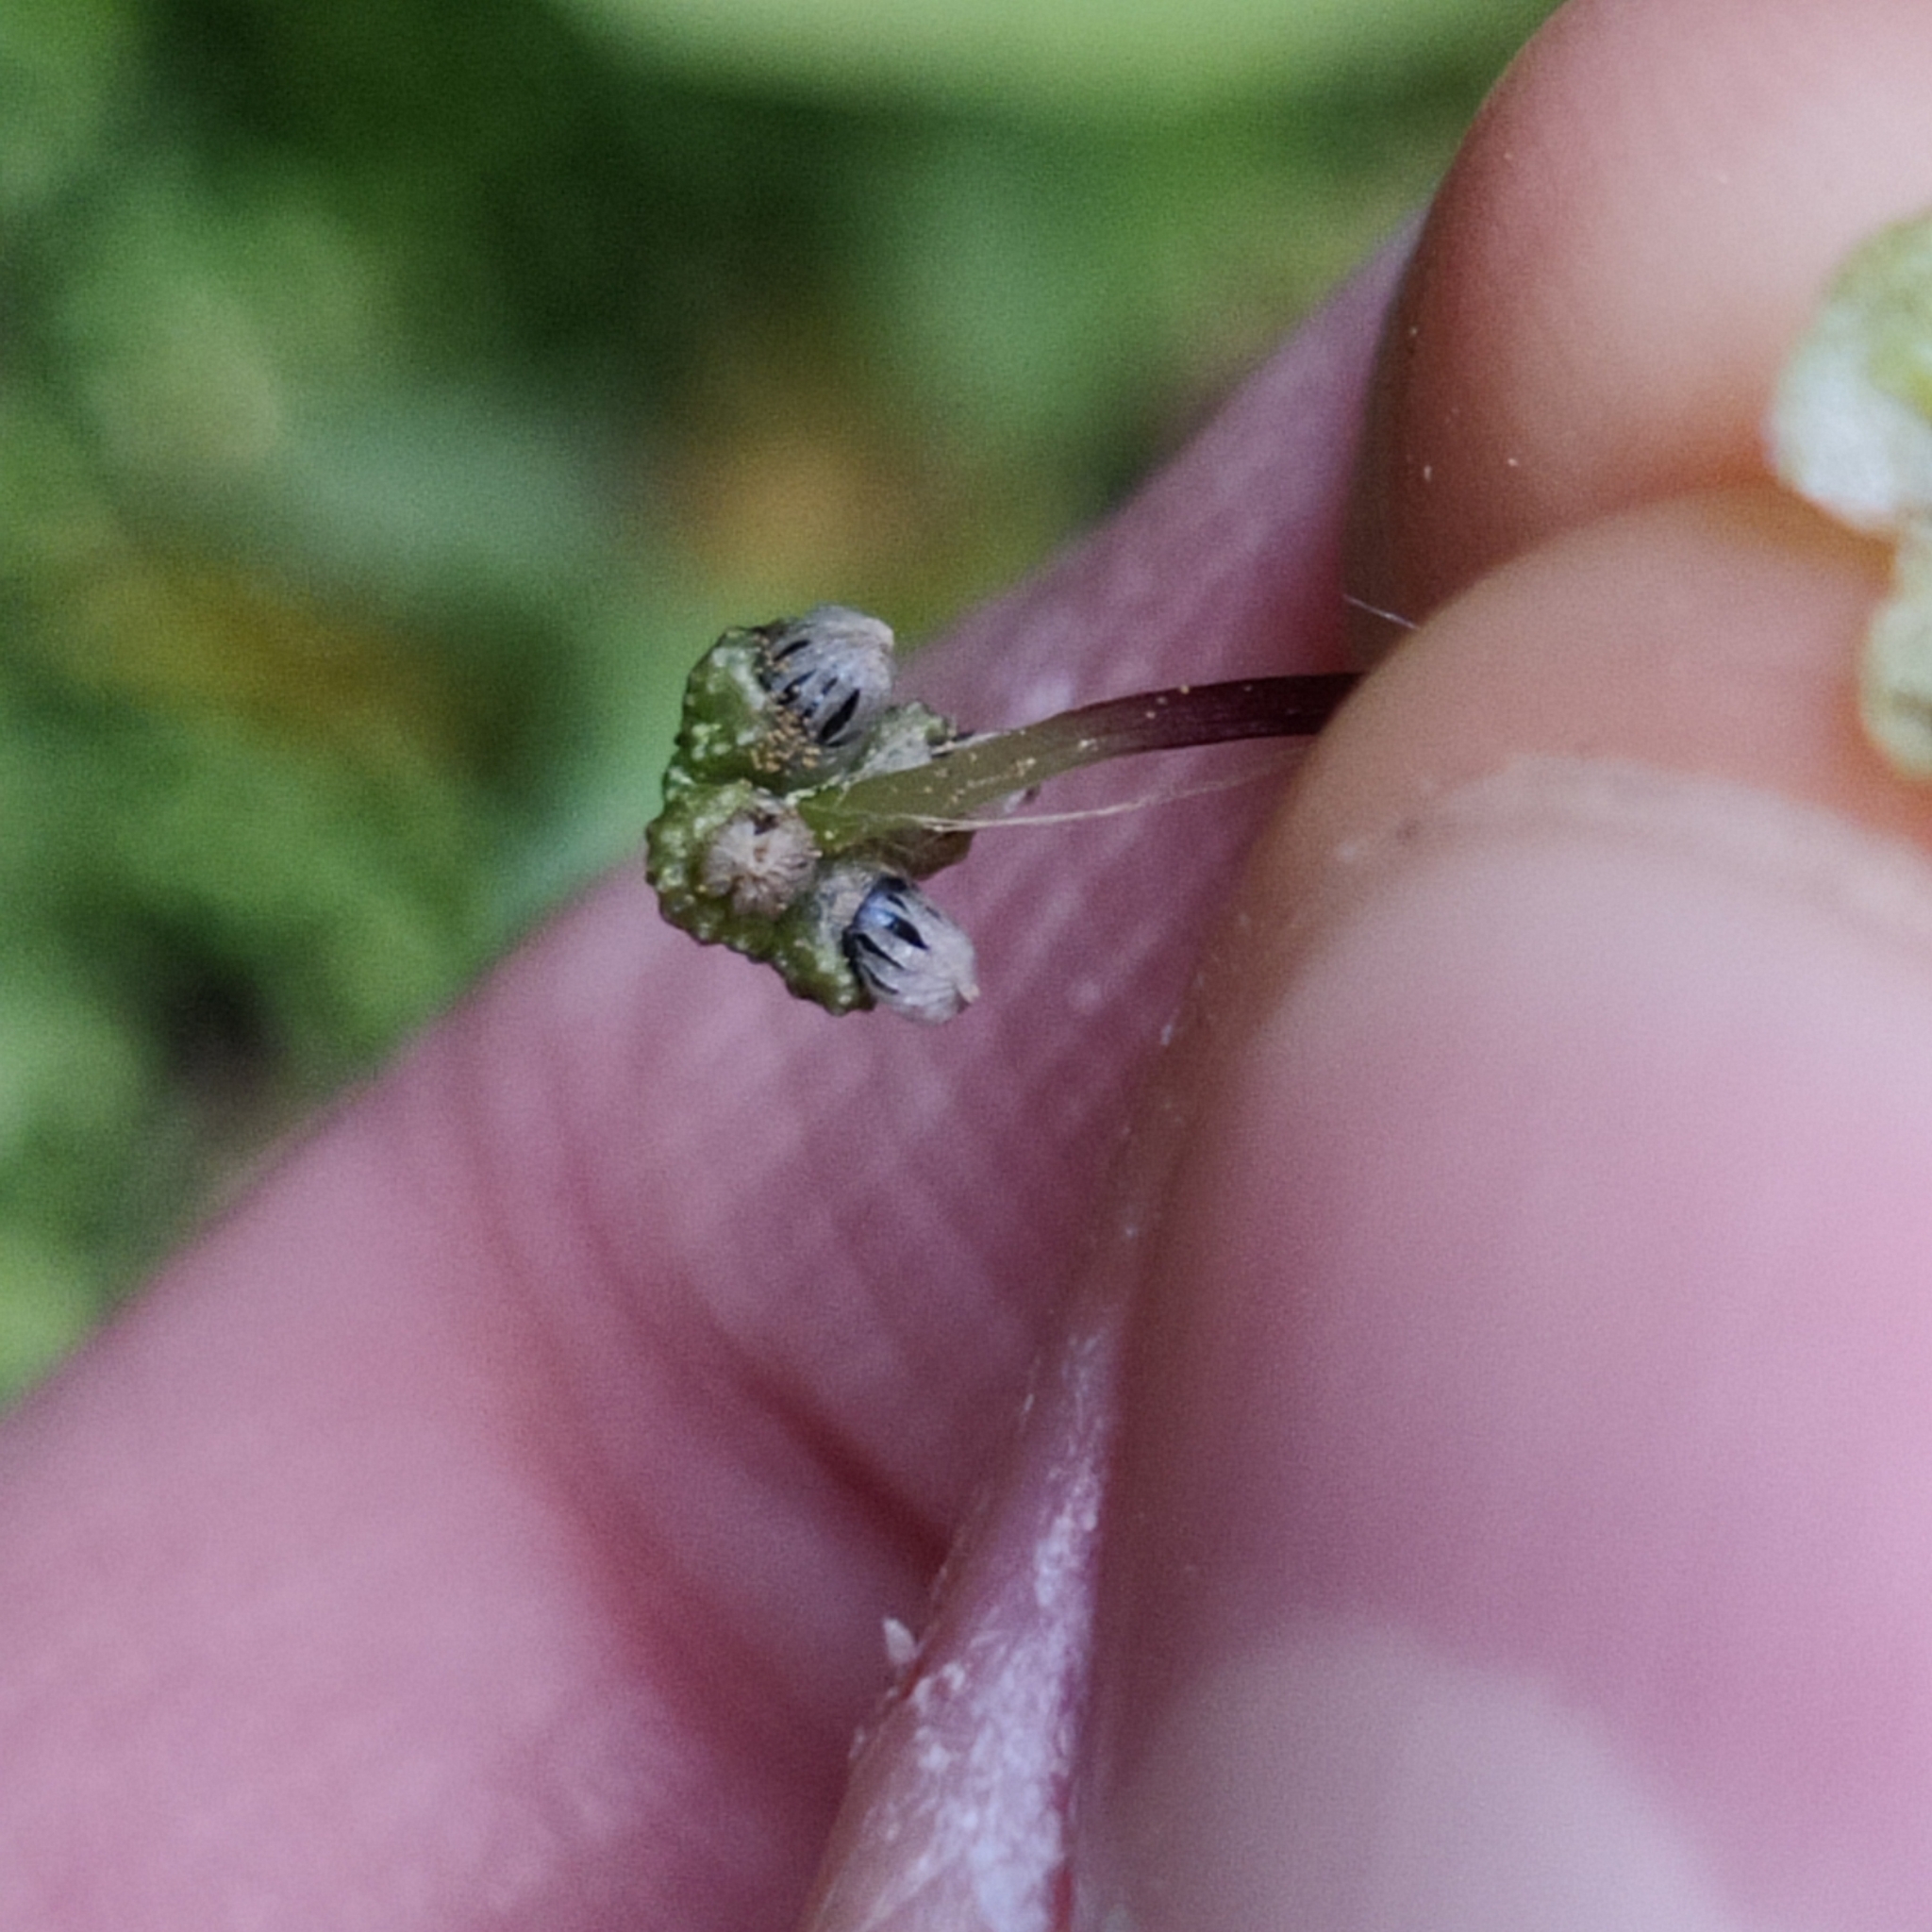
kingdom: Plantae
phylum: Marchantiophyta
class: Marchantiopsida
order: Marchantiales
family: Aytoniaceae
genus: Asterella
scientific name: Asterella australis
